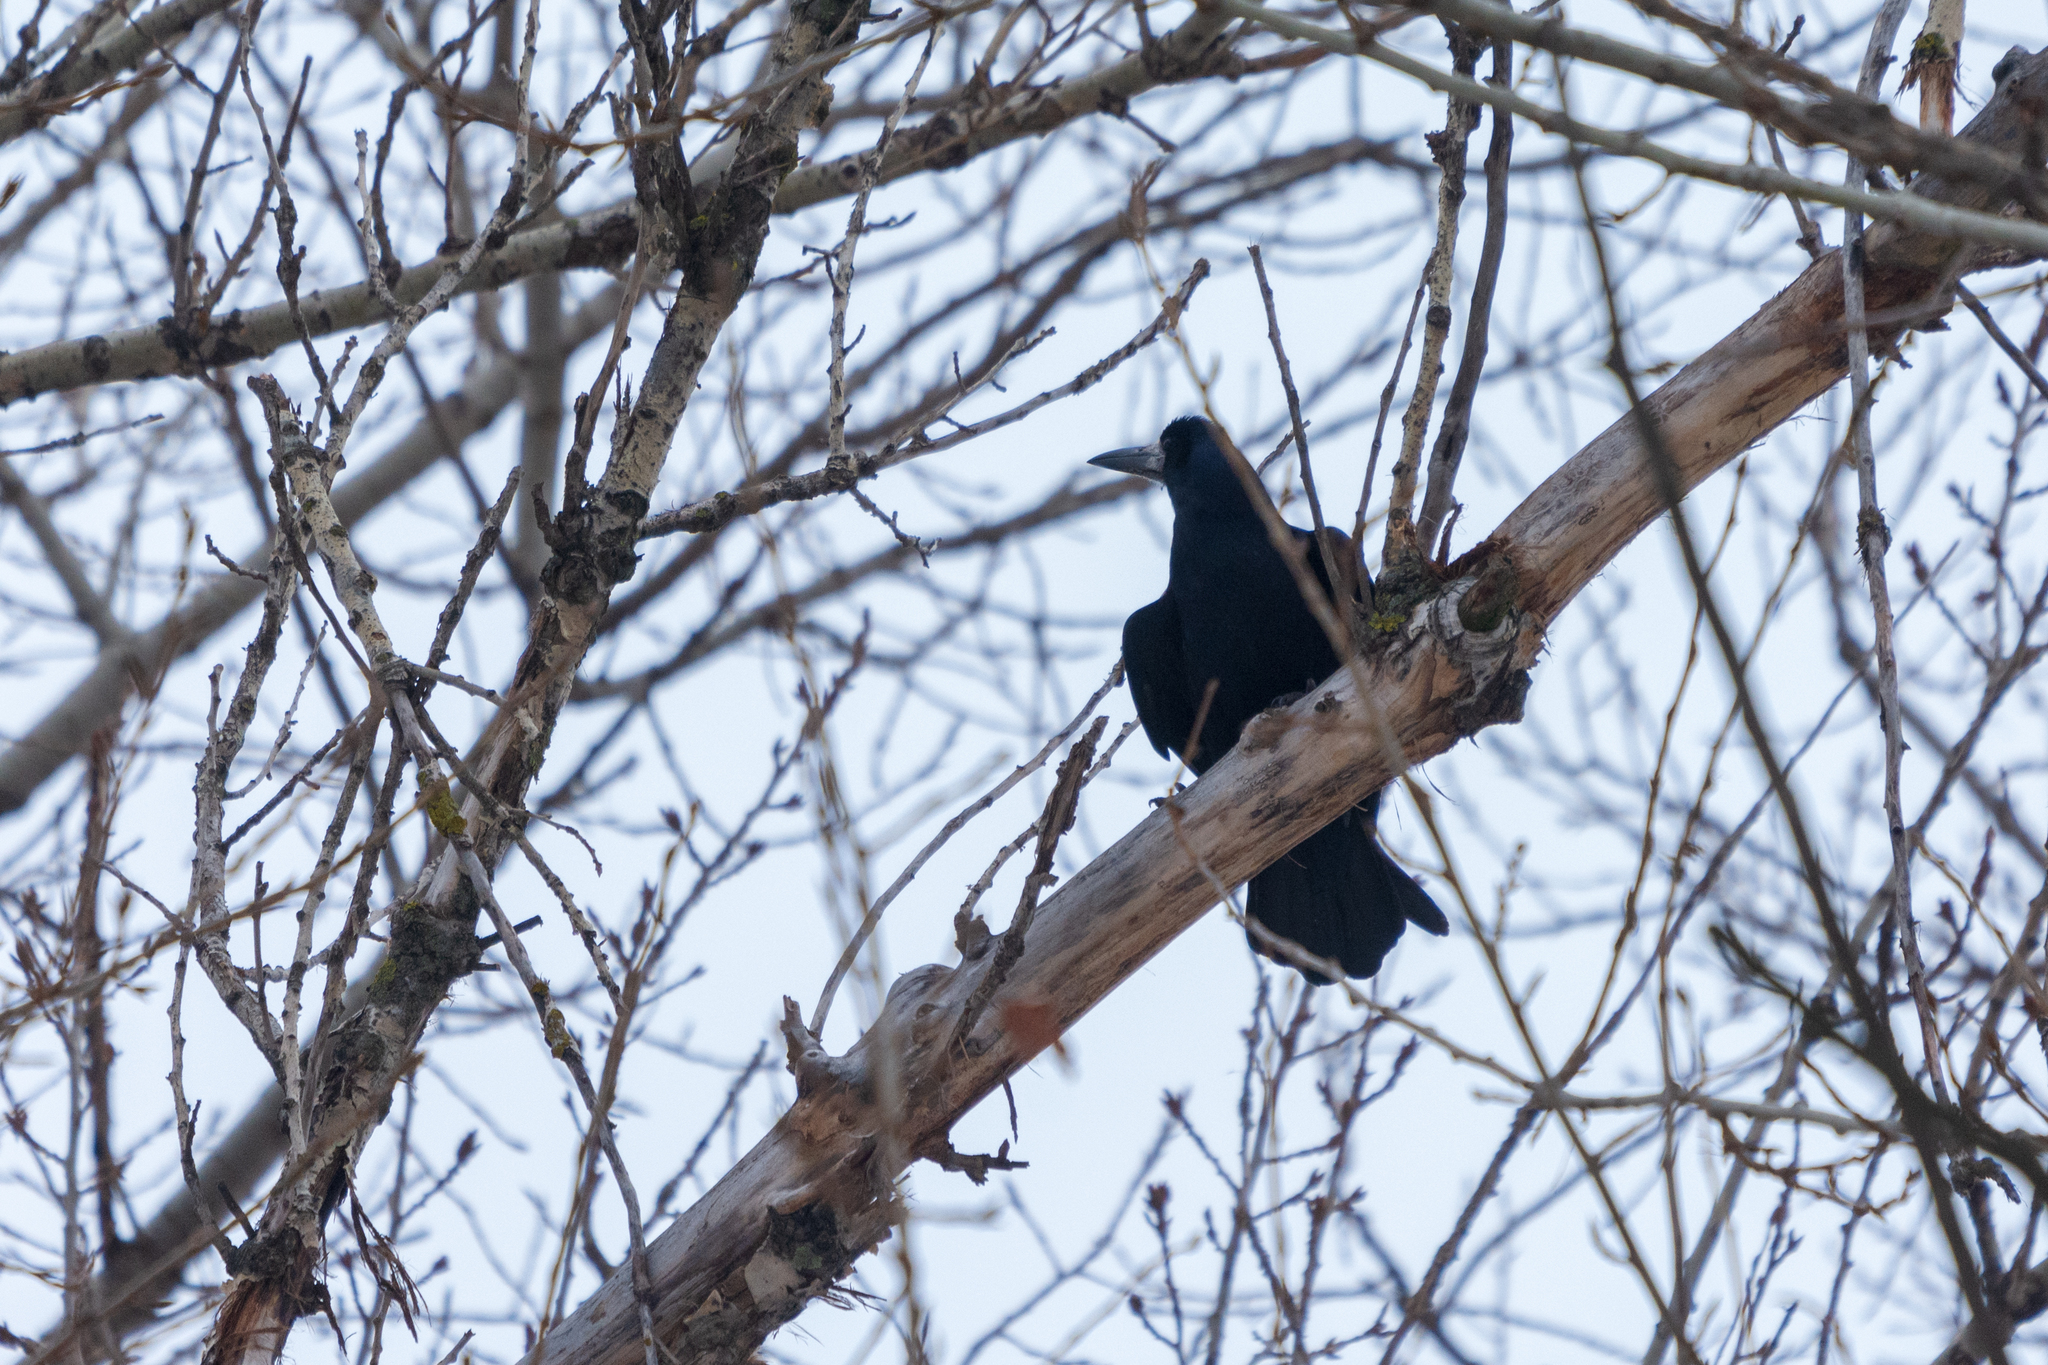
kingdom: Animalia
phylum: Chordata
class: Aves
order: Passeriformes
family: Corvidae
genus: Corvus
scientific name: Corvus frugilegus
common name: Rook
